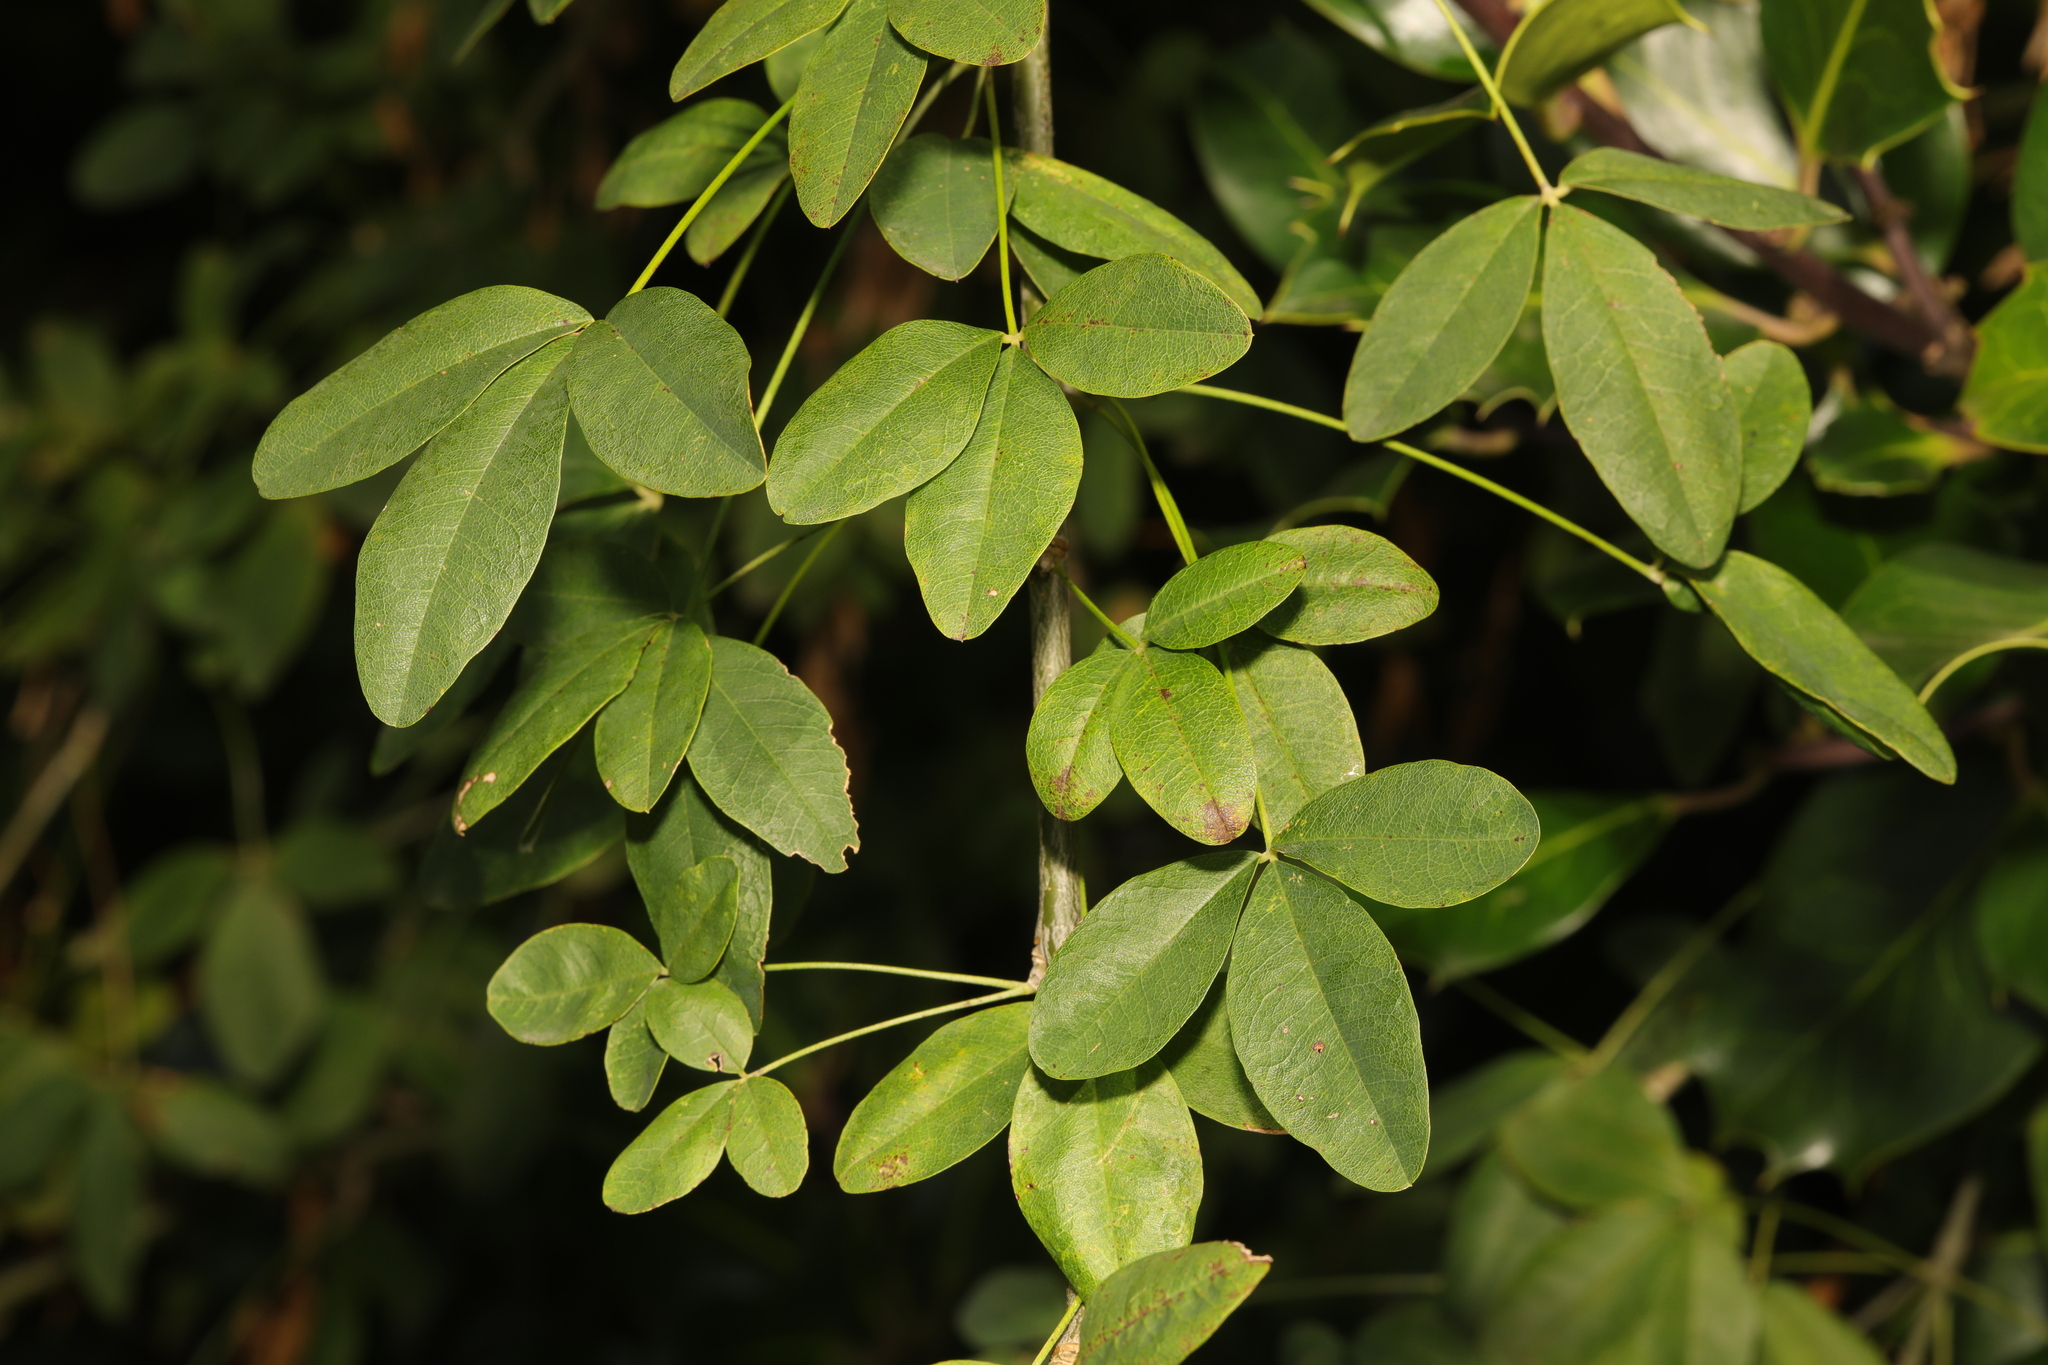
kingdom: Plantae
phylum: Tracheophyta
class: Magnoliopsida
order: Fabales
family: Fabaceae
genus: Laburnum
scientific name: Laburnum anagyroides
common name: Laburnum
